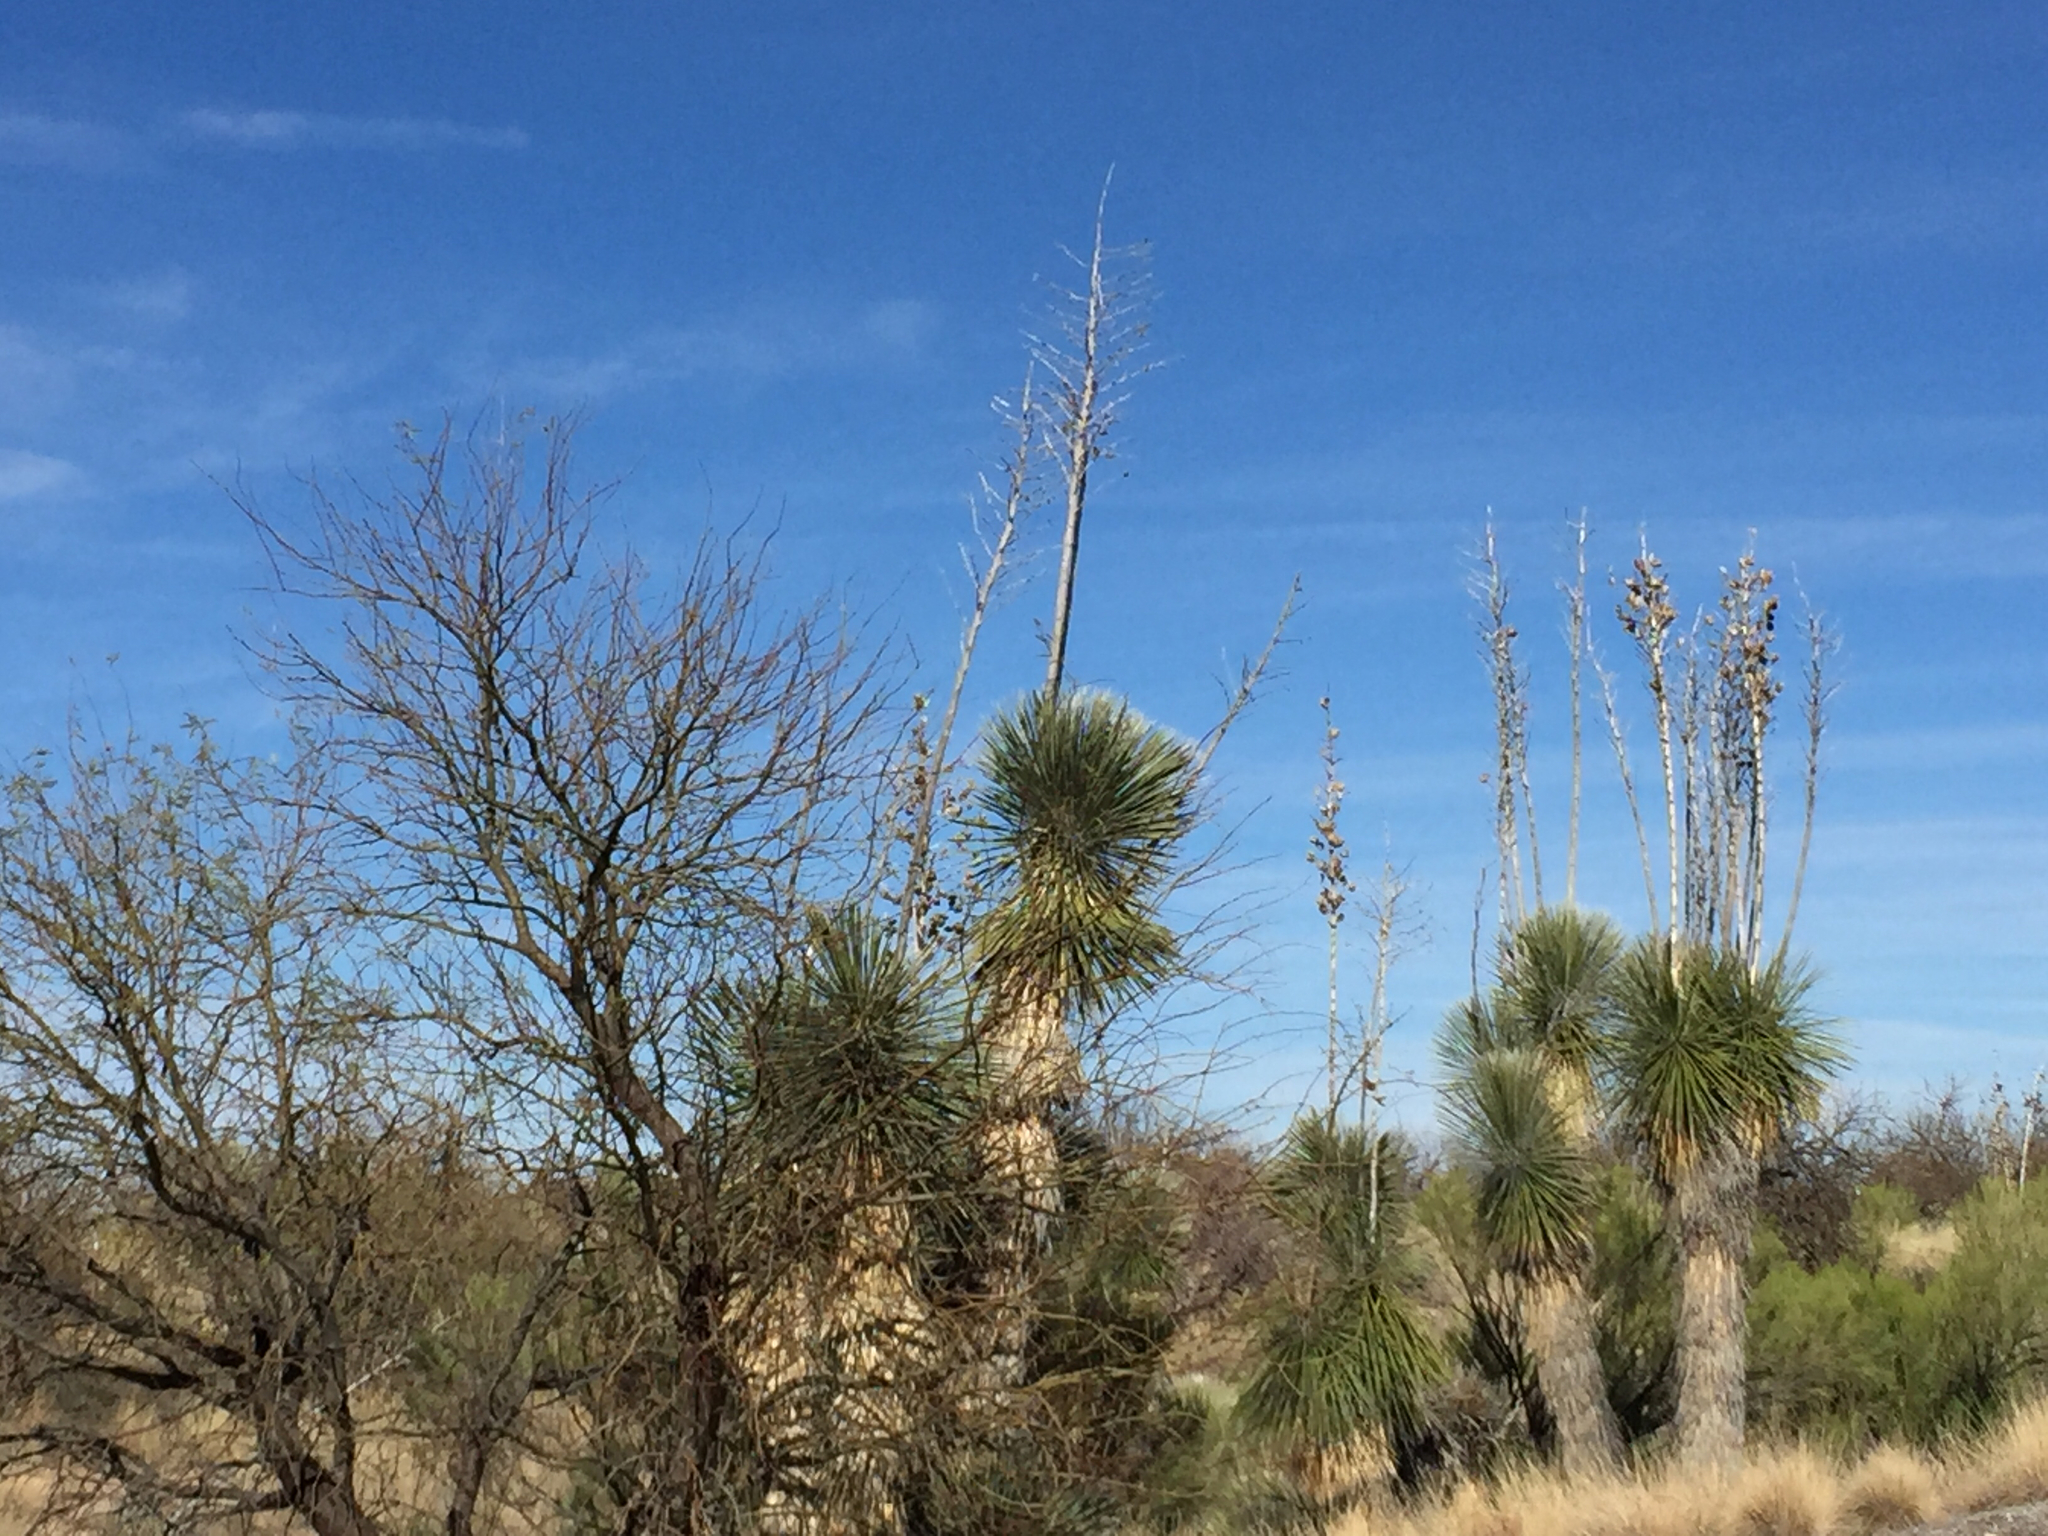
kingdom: Plantae
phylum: Tracheophyta
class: Liliopsida
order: Asparagales
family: Asparagaceae
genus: Yucca
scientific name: Yucca elata
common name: Palmella
